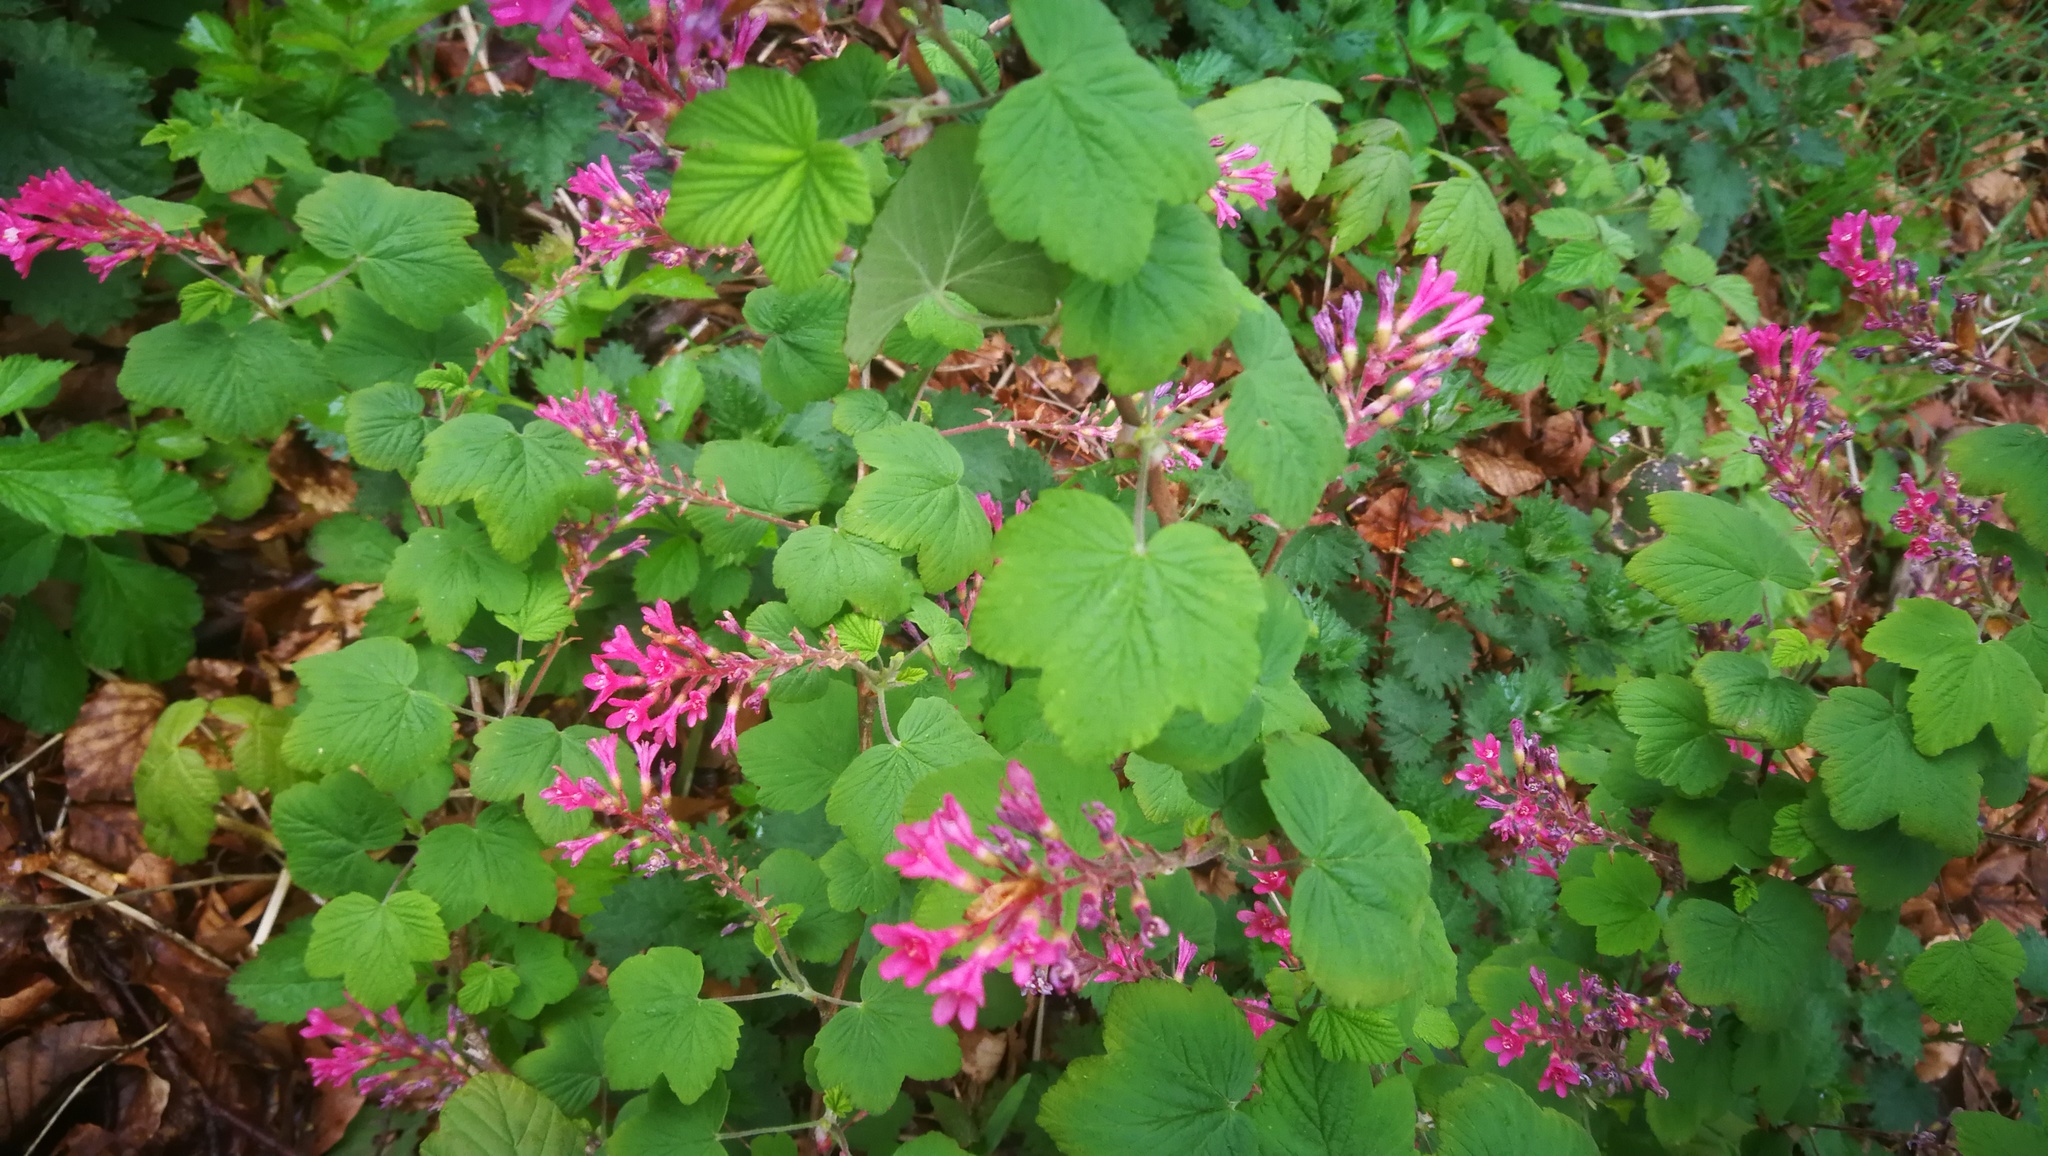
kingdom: Plantae
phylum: Tracheophyta
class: Magnoliopsida
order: Saxifragales
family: Grossulariaceae
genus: Ribes
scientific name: Ribes sanguineum
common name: Flowering currant
